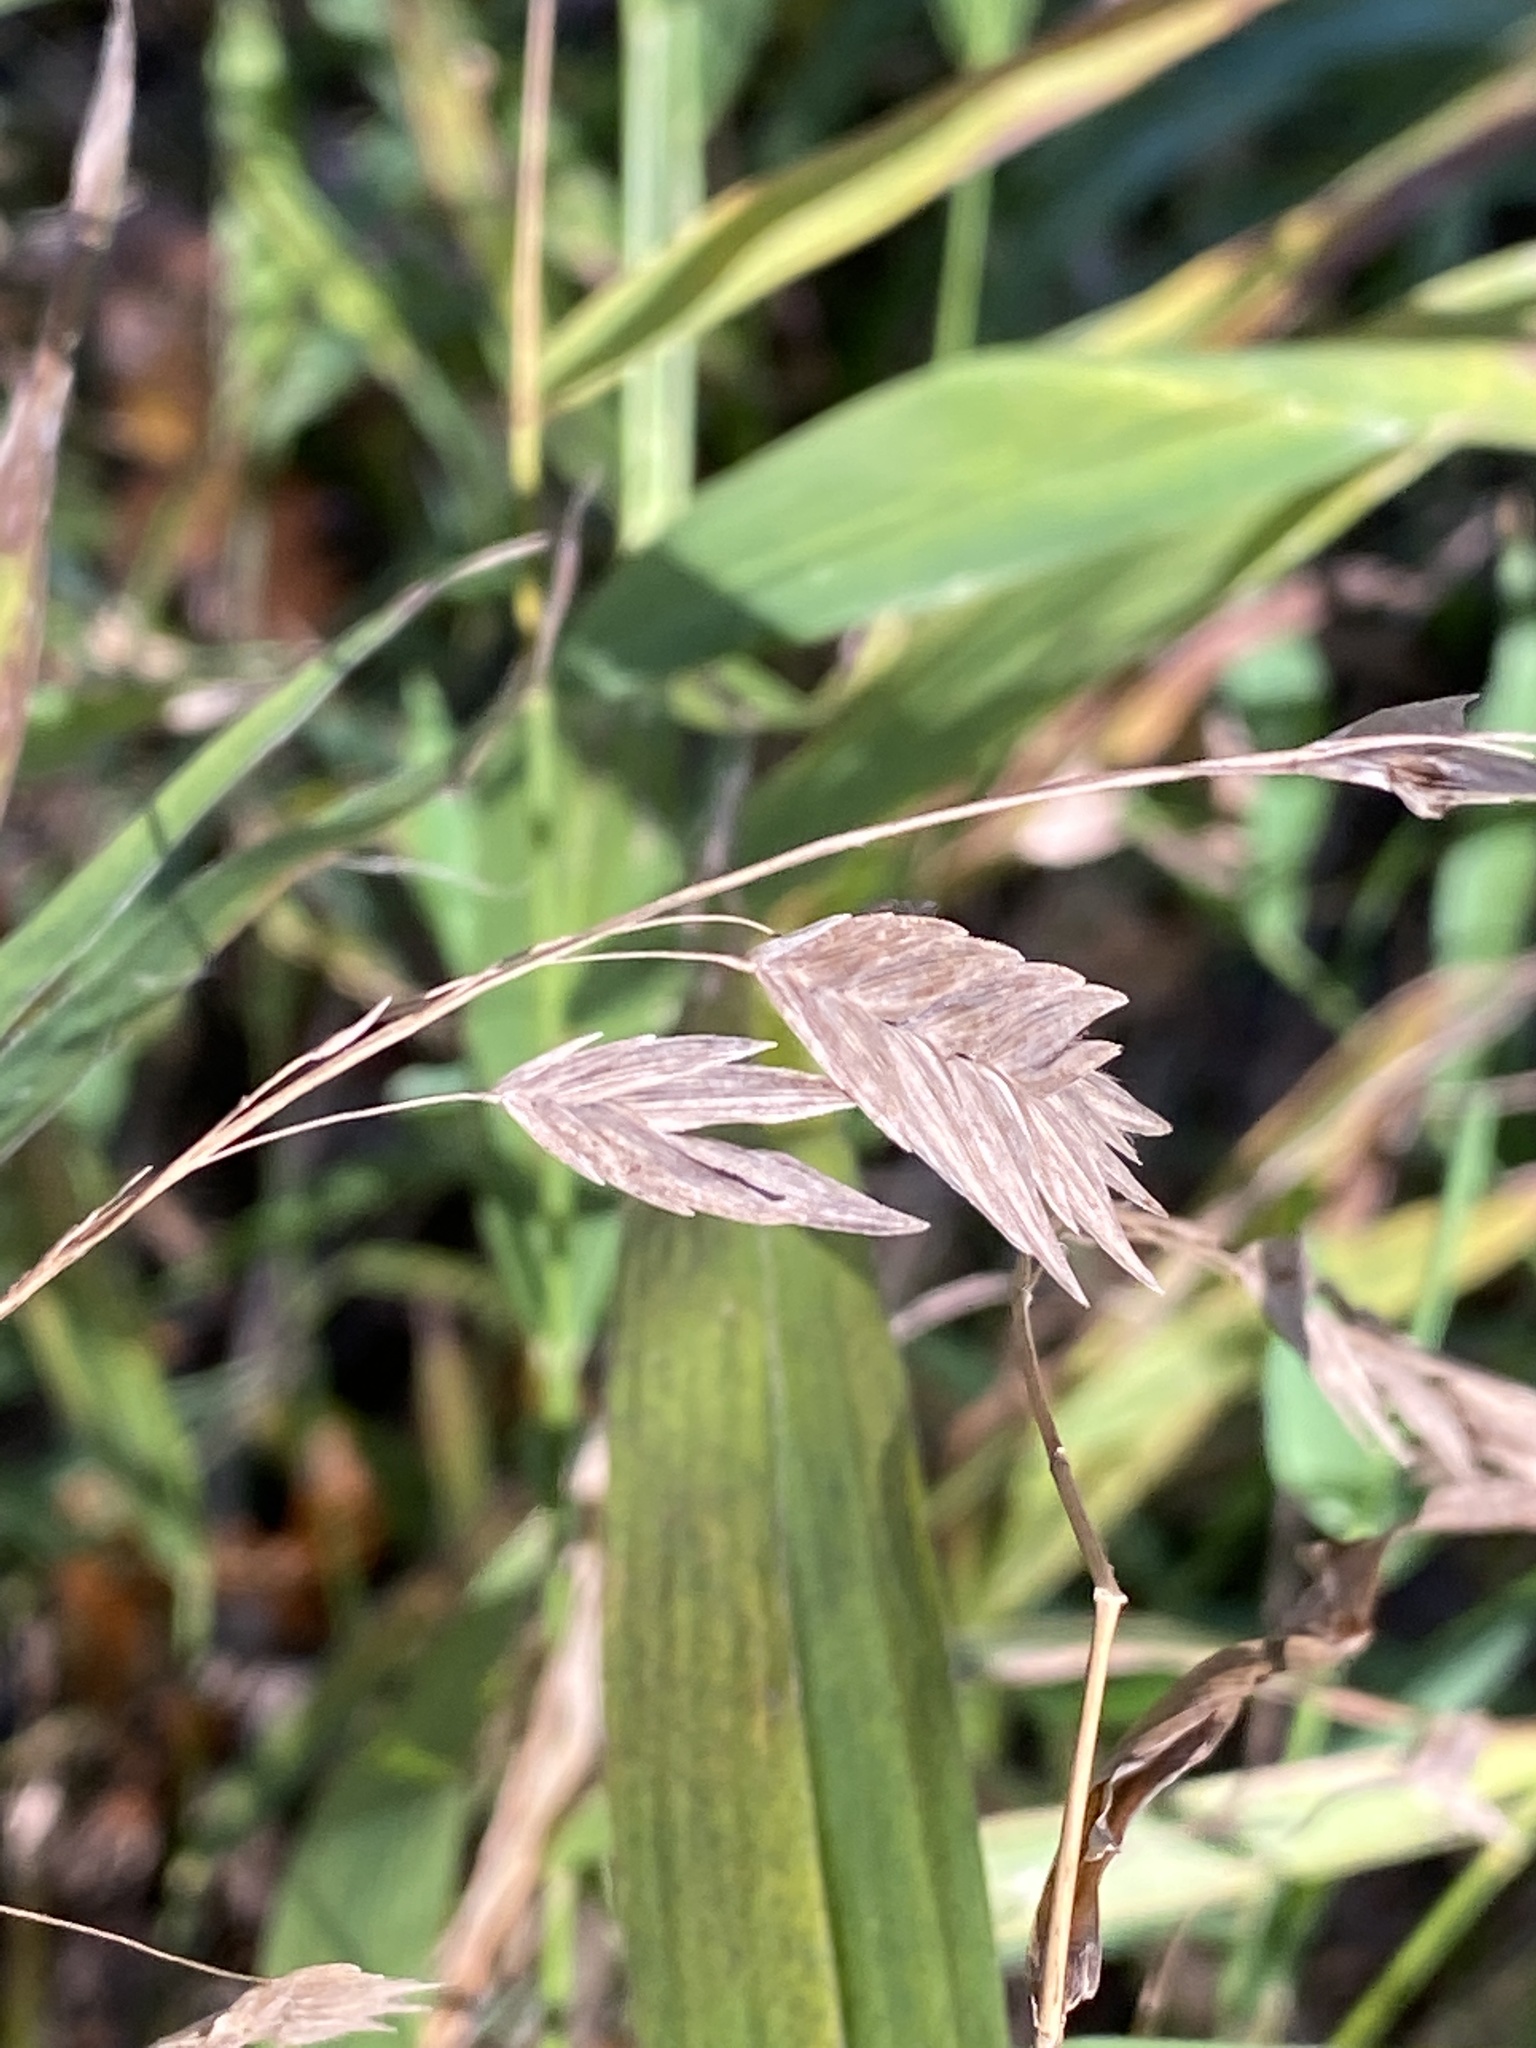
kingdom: Plantae
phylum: Tracheophyta
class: Liliopsida
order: Poales
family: Poaceae
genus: Chasmanthium
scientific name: Chasmanthium latifolium
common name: Broad-leaved chasmanthium
